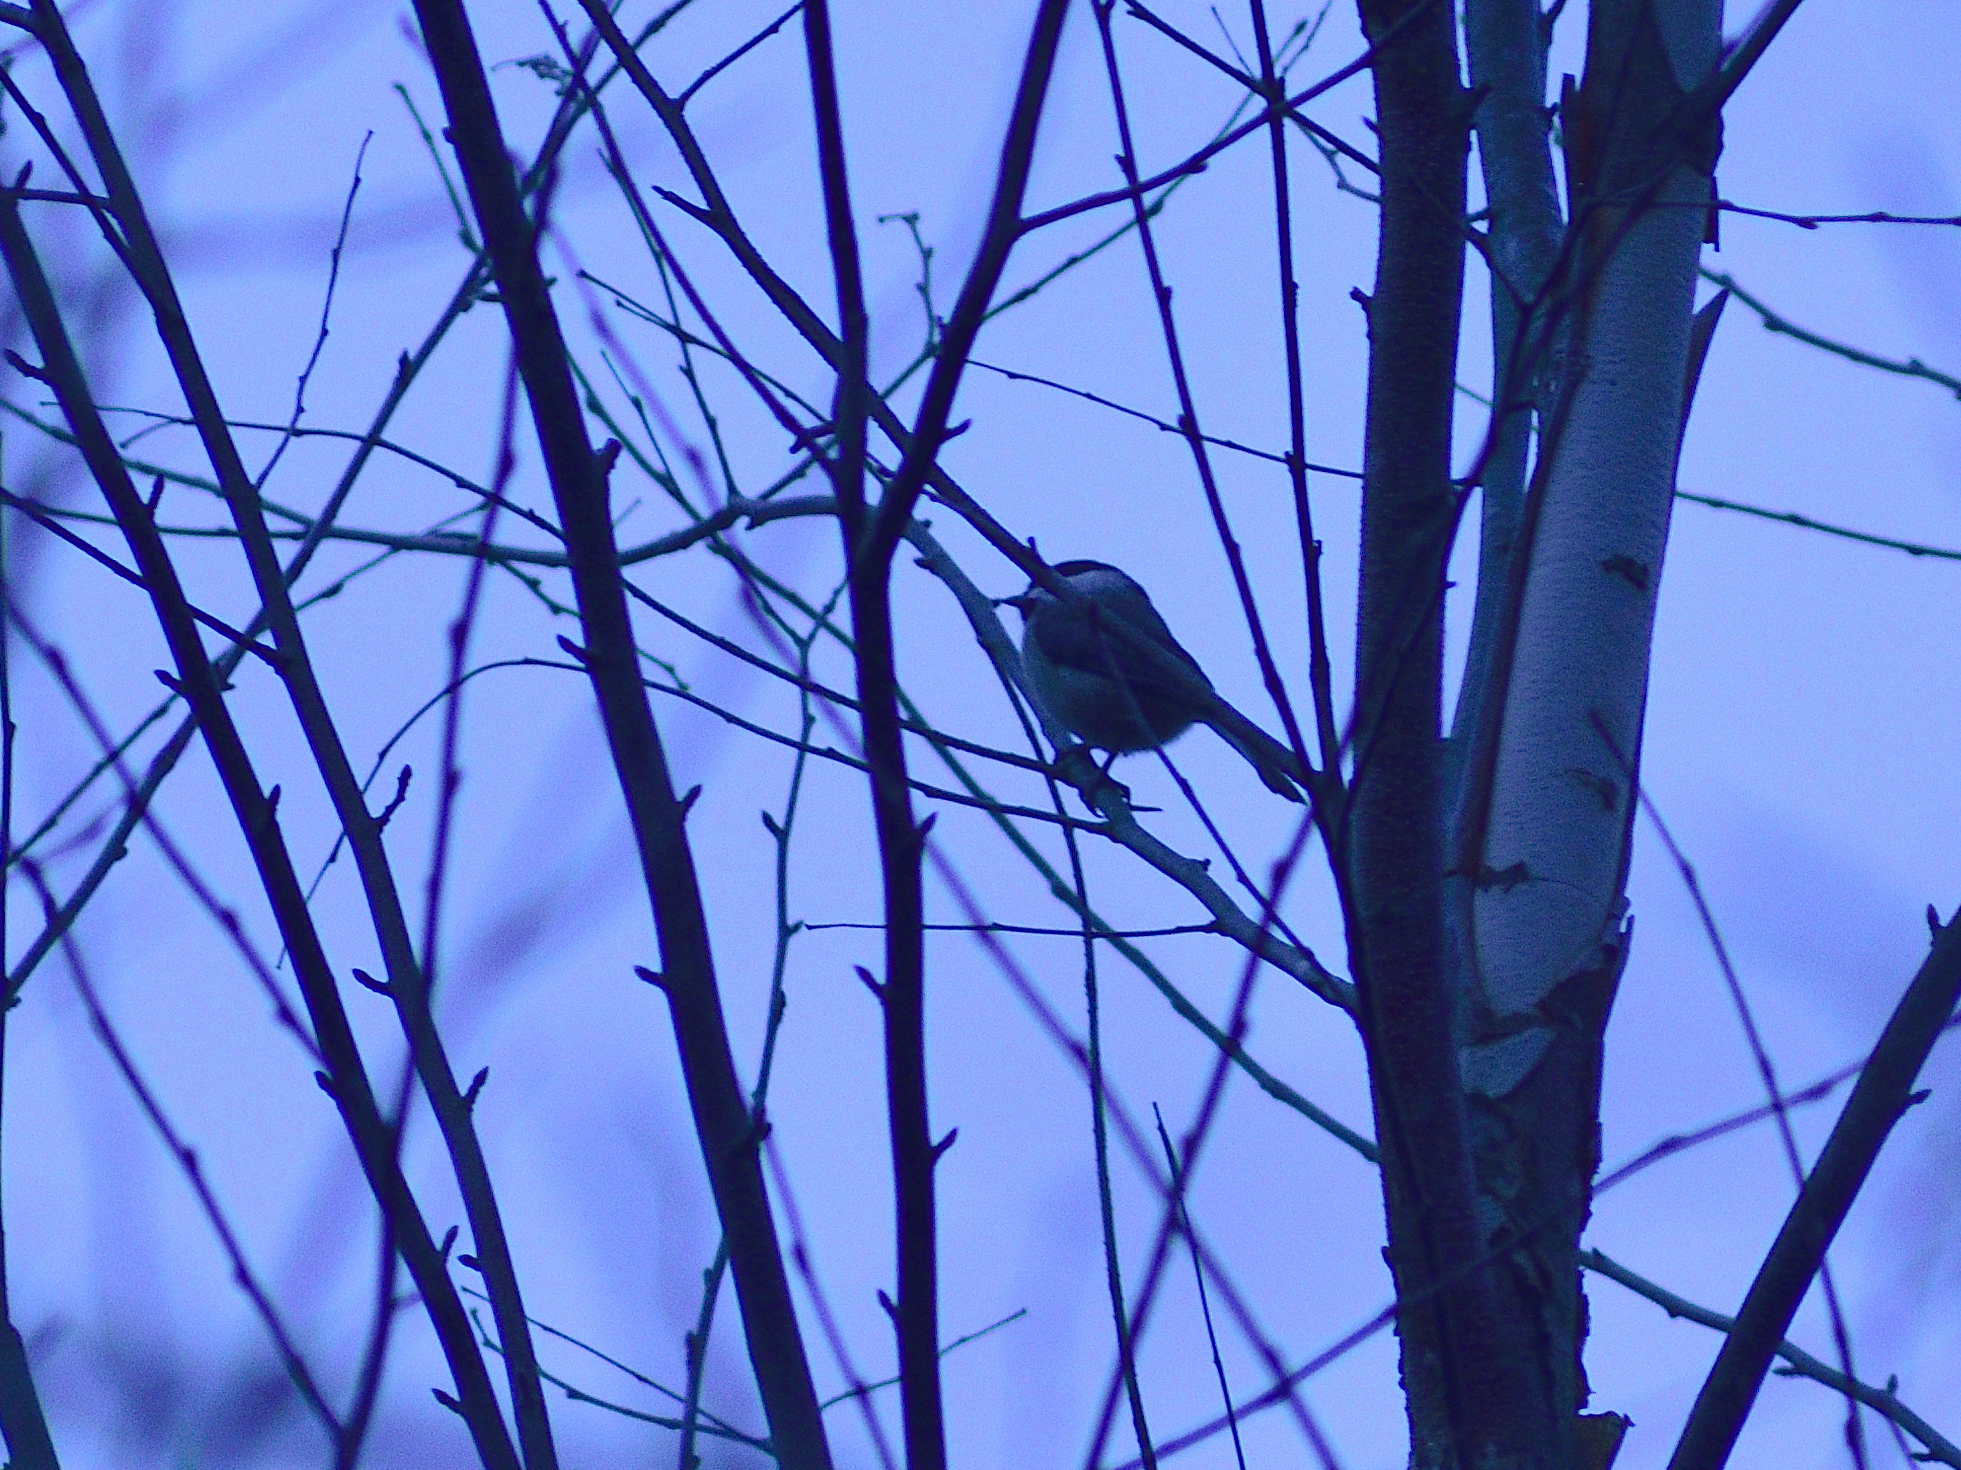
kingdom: Animalia
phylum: Chordata
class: Aves
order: Passeriformes
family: Paridae
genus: Poecile
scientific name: Poecile carolinensis
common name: Carolina chickadee
